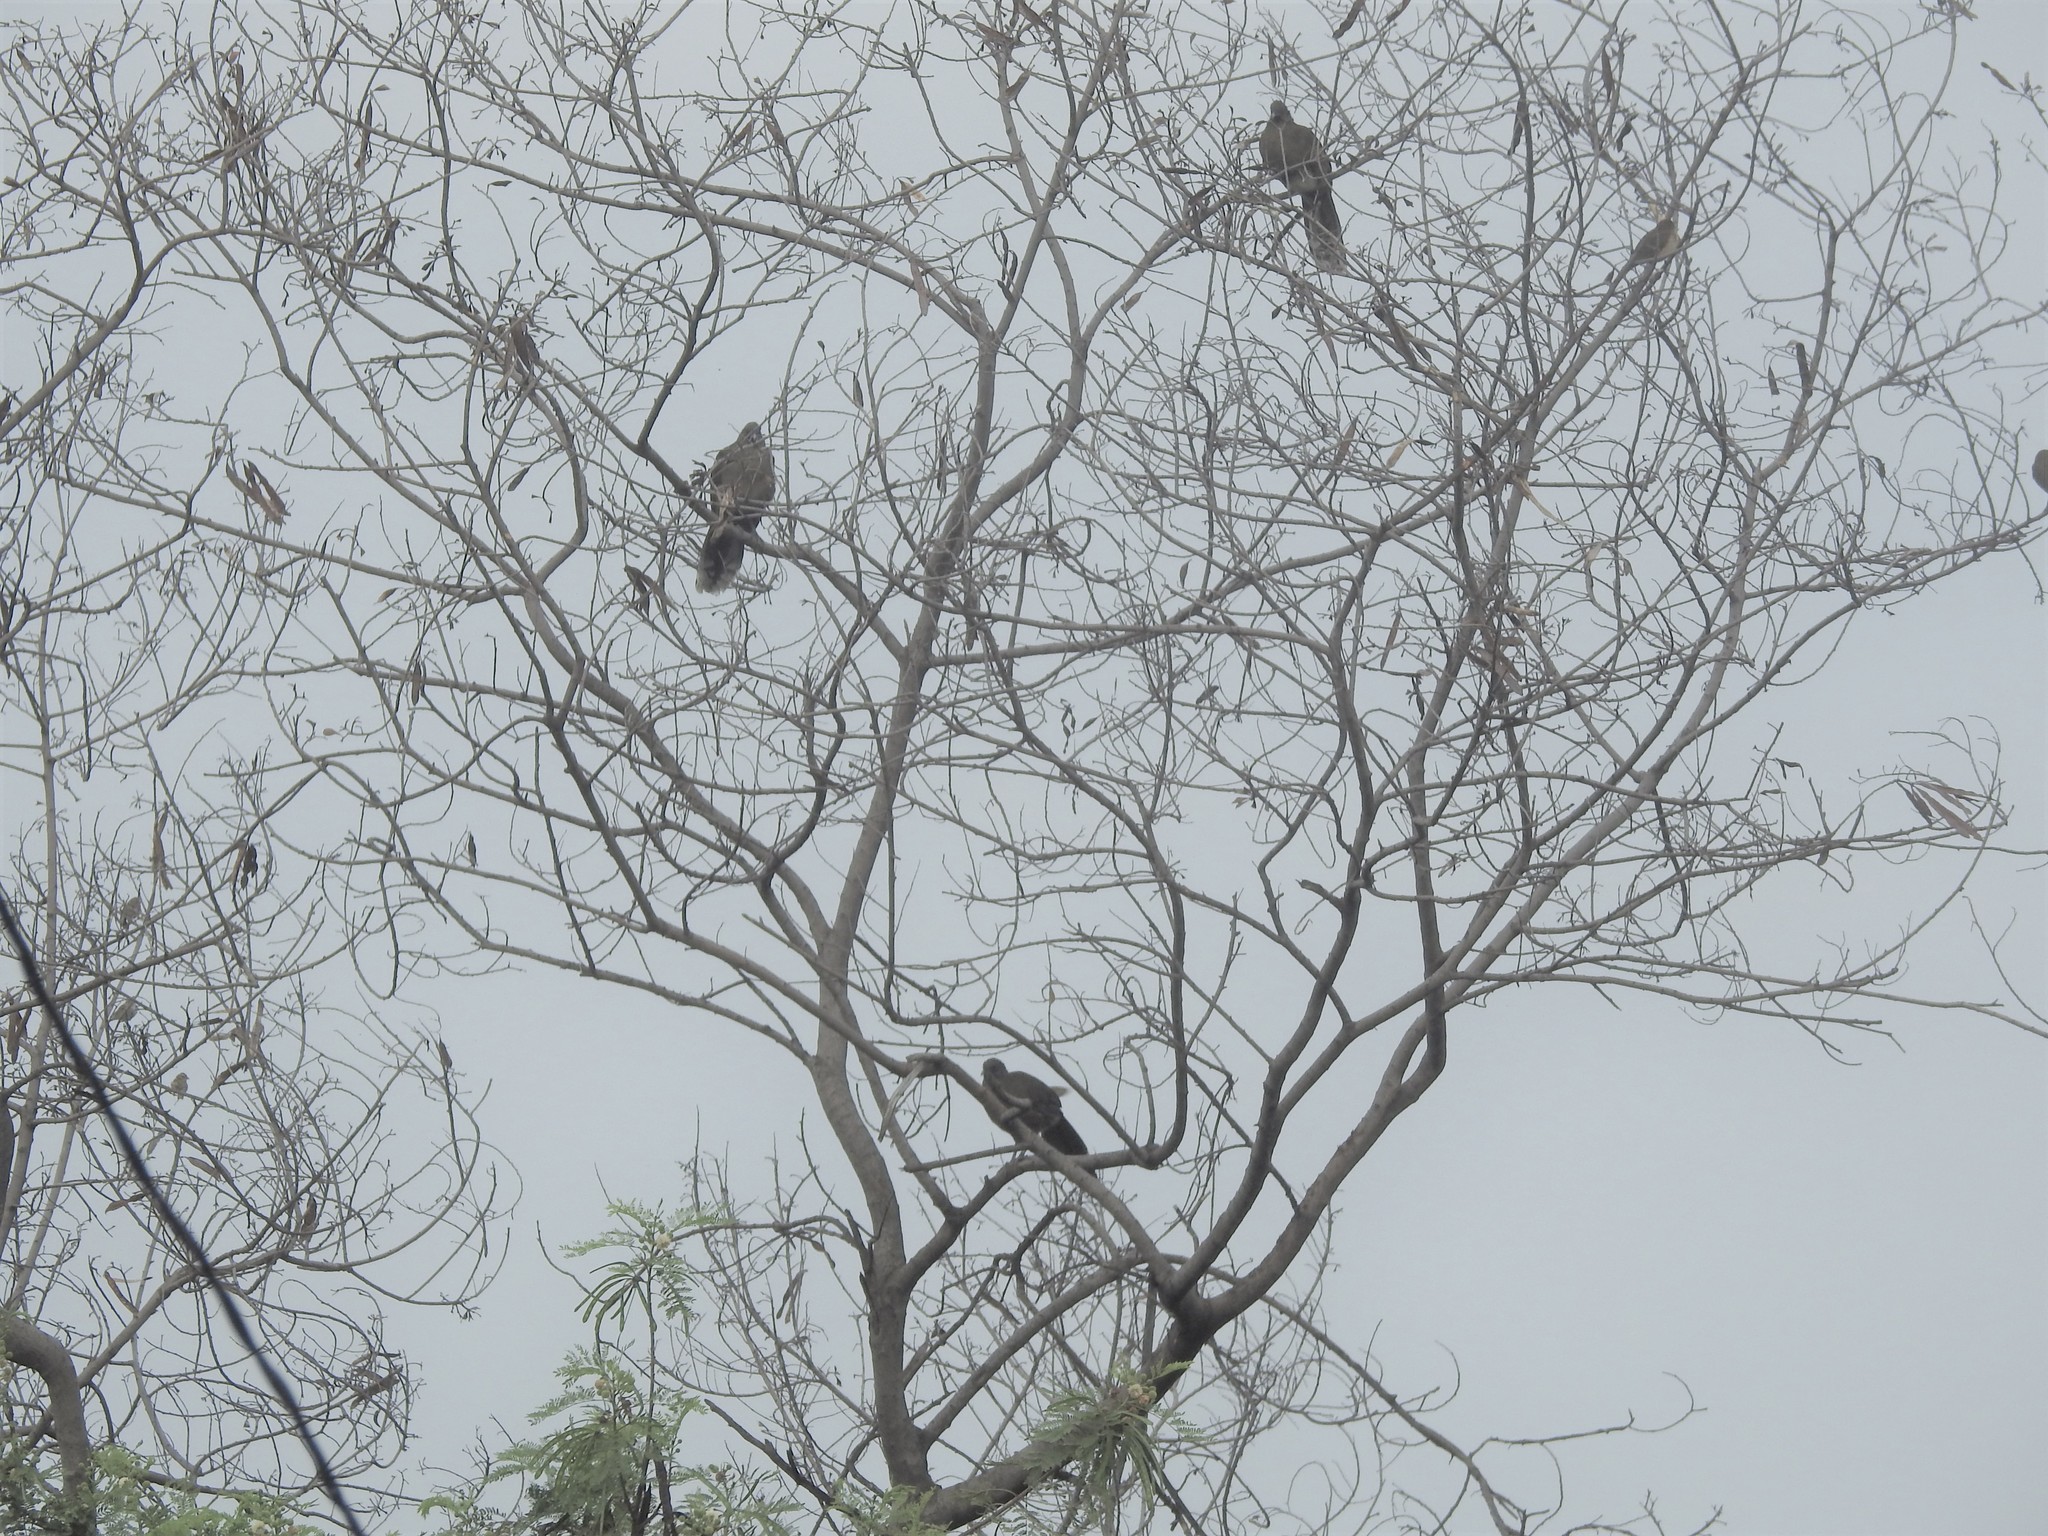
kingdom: Animalia
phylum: Chordata
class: Aves
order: Galliformes
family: Cracidae
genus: Ortalis
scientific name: Ortalis vetula
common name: Plain chachalaca
